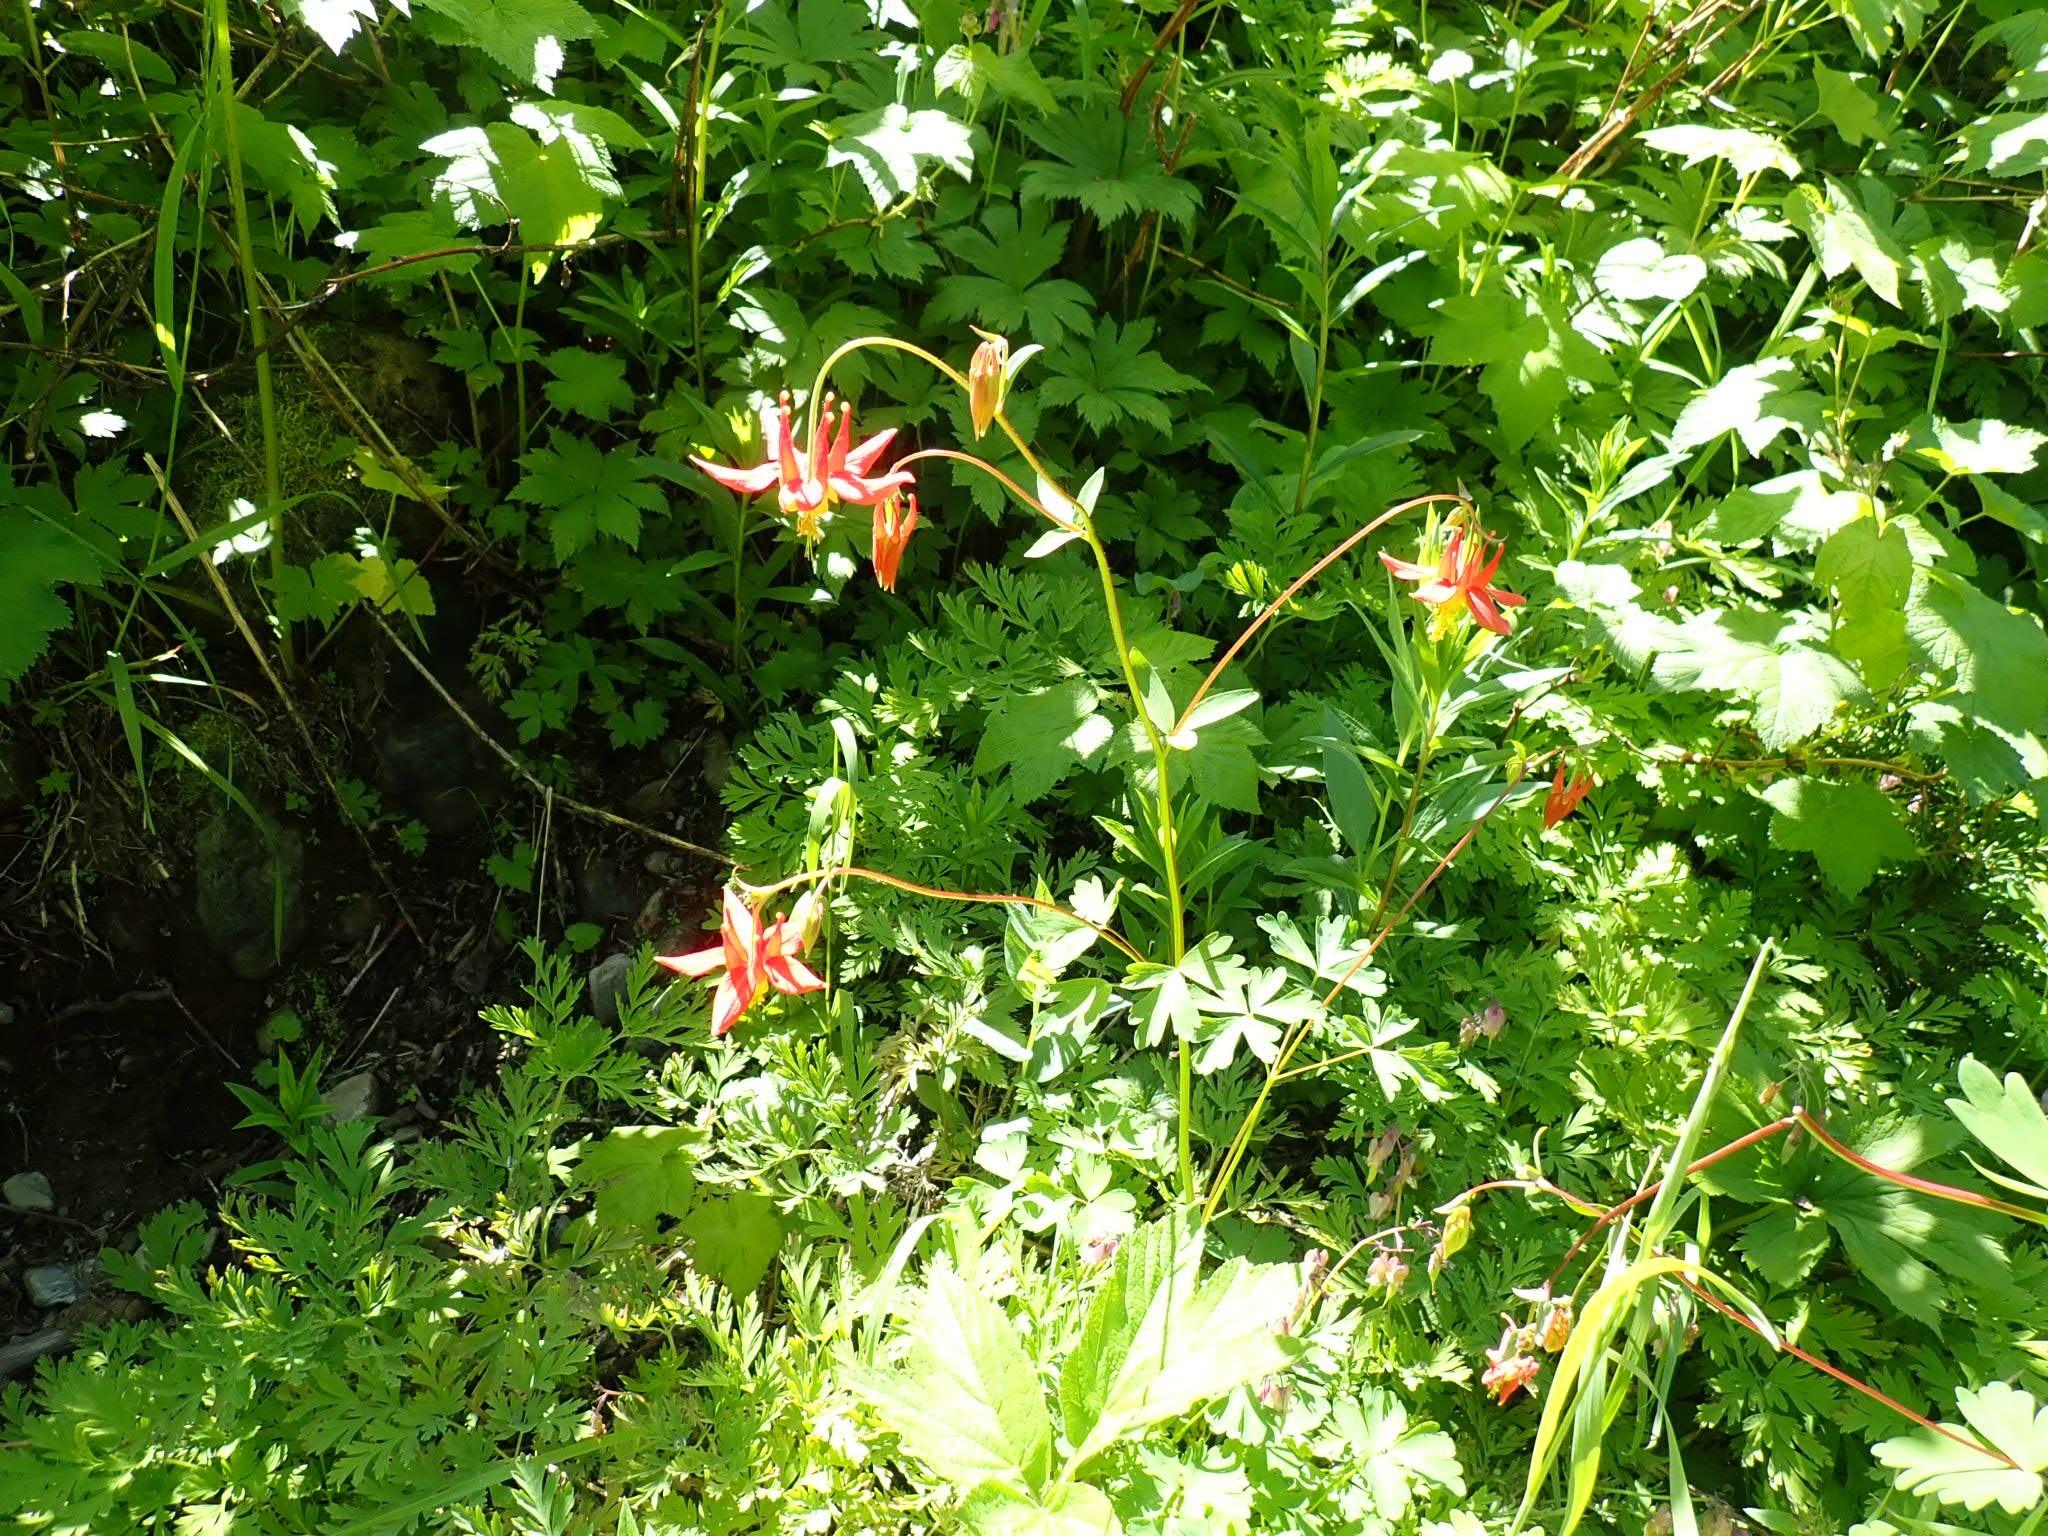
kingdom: Plantae
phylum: Tracheophyta
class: Magnoliopsida
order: Ranunculales
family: Ranunculaceae
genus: Aquilegia
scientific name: Aquilegia formosa
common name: Sitka columbine
